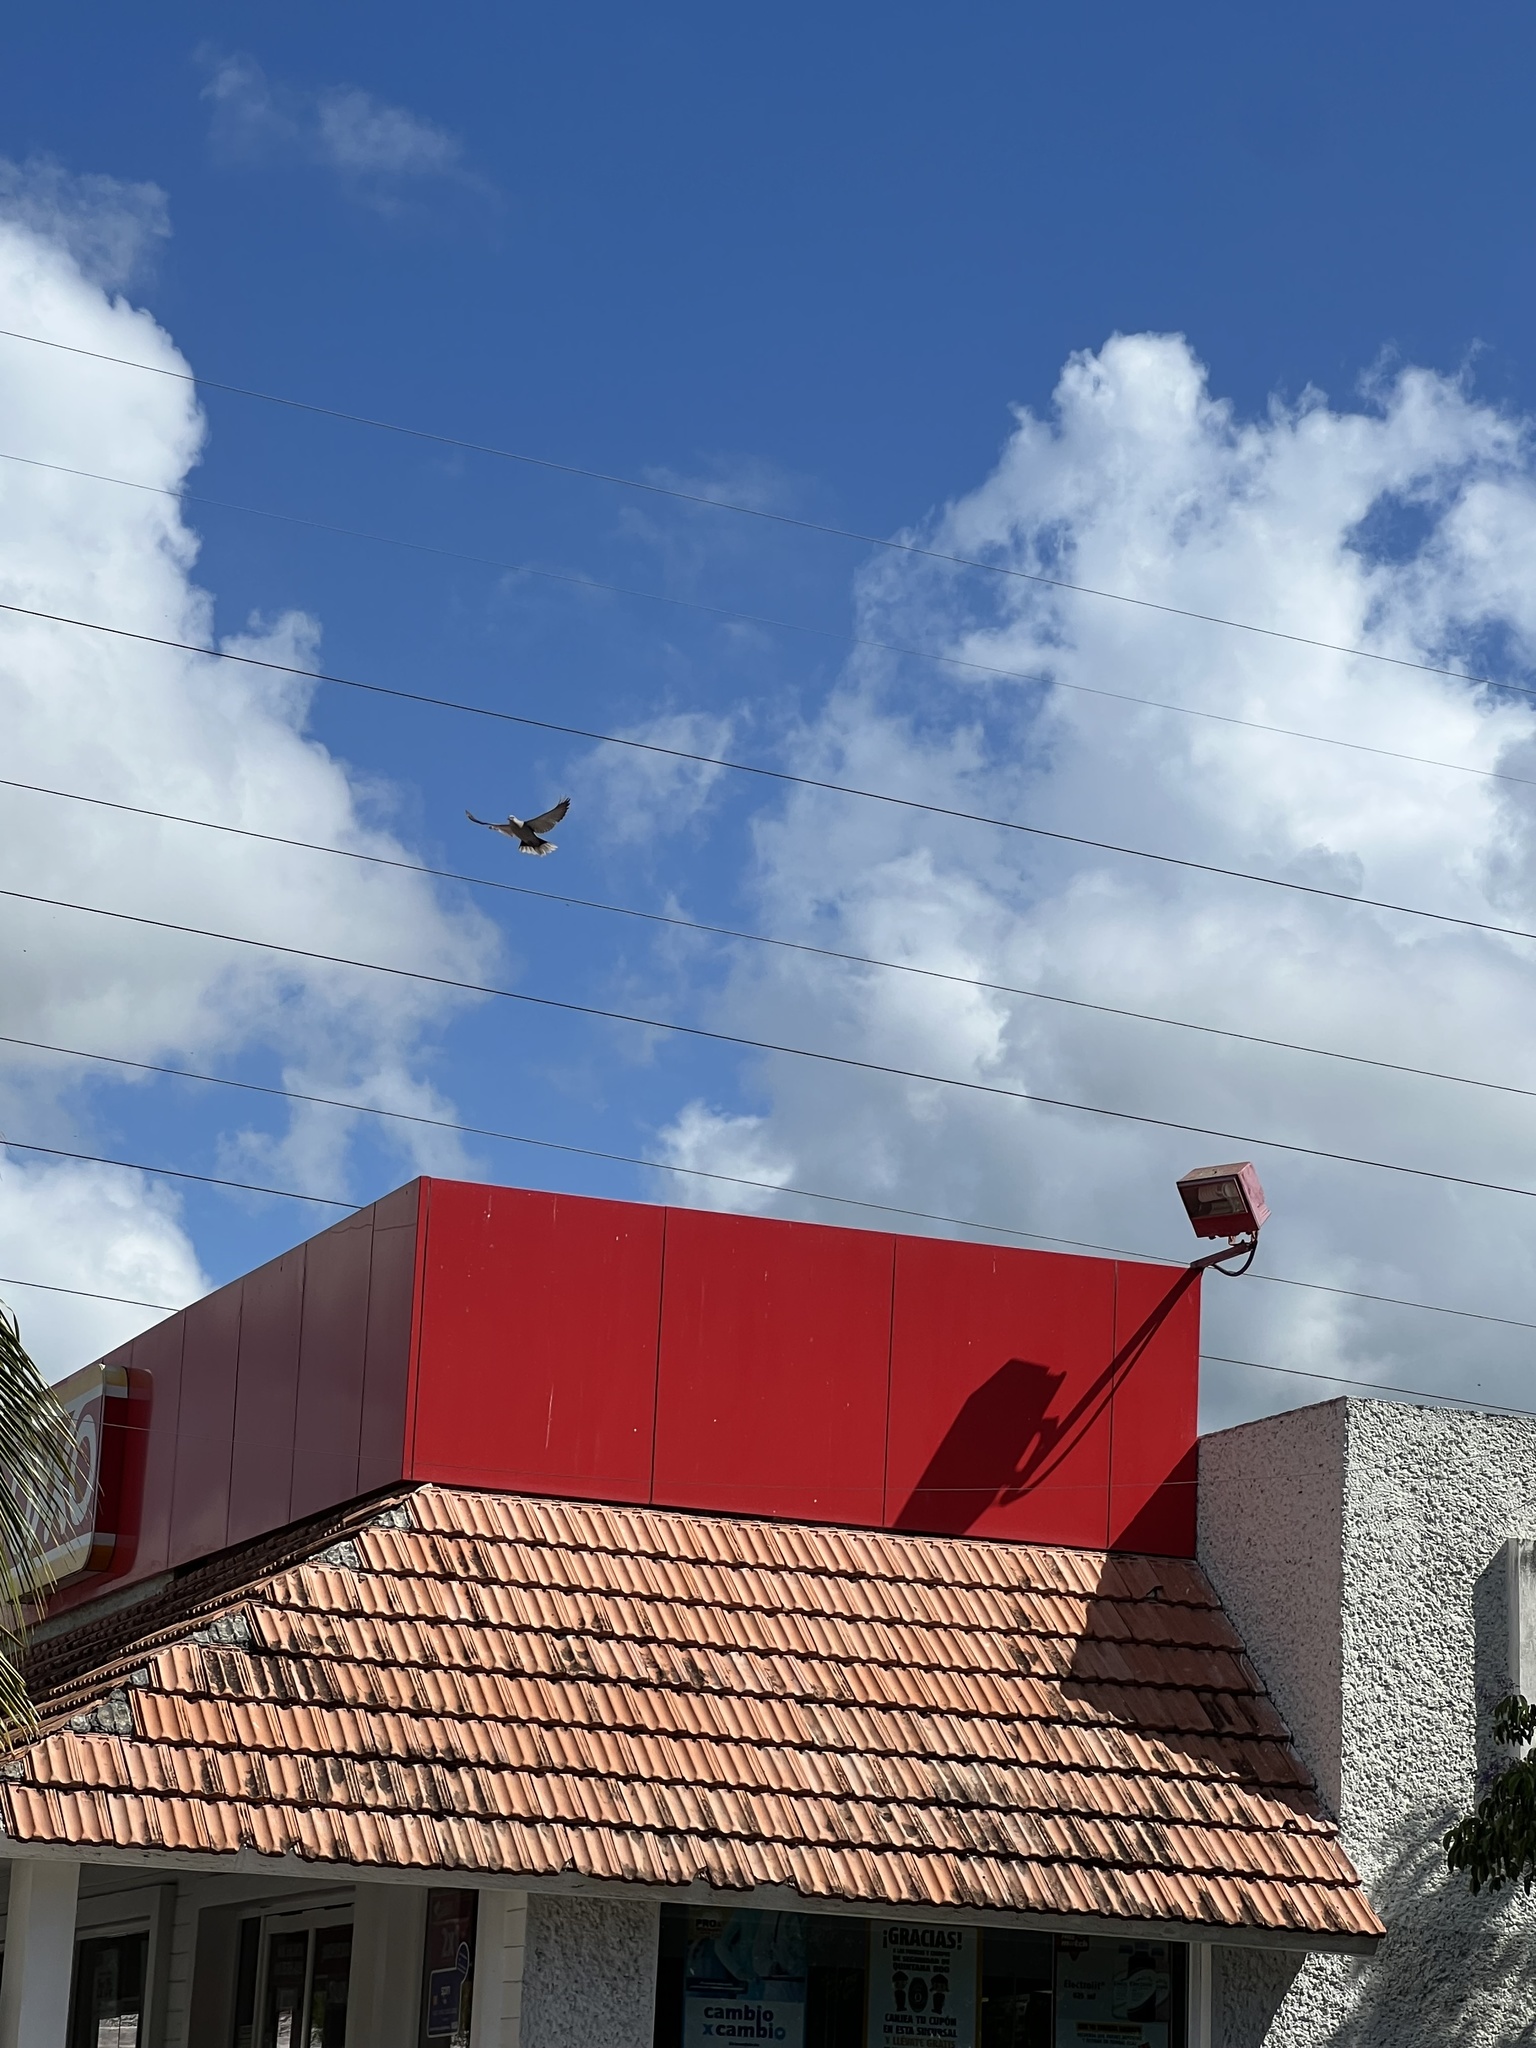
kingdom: Animalia
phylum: Chordata
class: Aves
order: Columbiformes
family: Columbidae
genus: Streptopelia
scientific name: Streptopelia decaocto
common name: Eurasian collared dove
